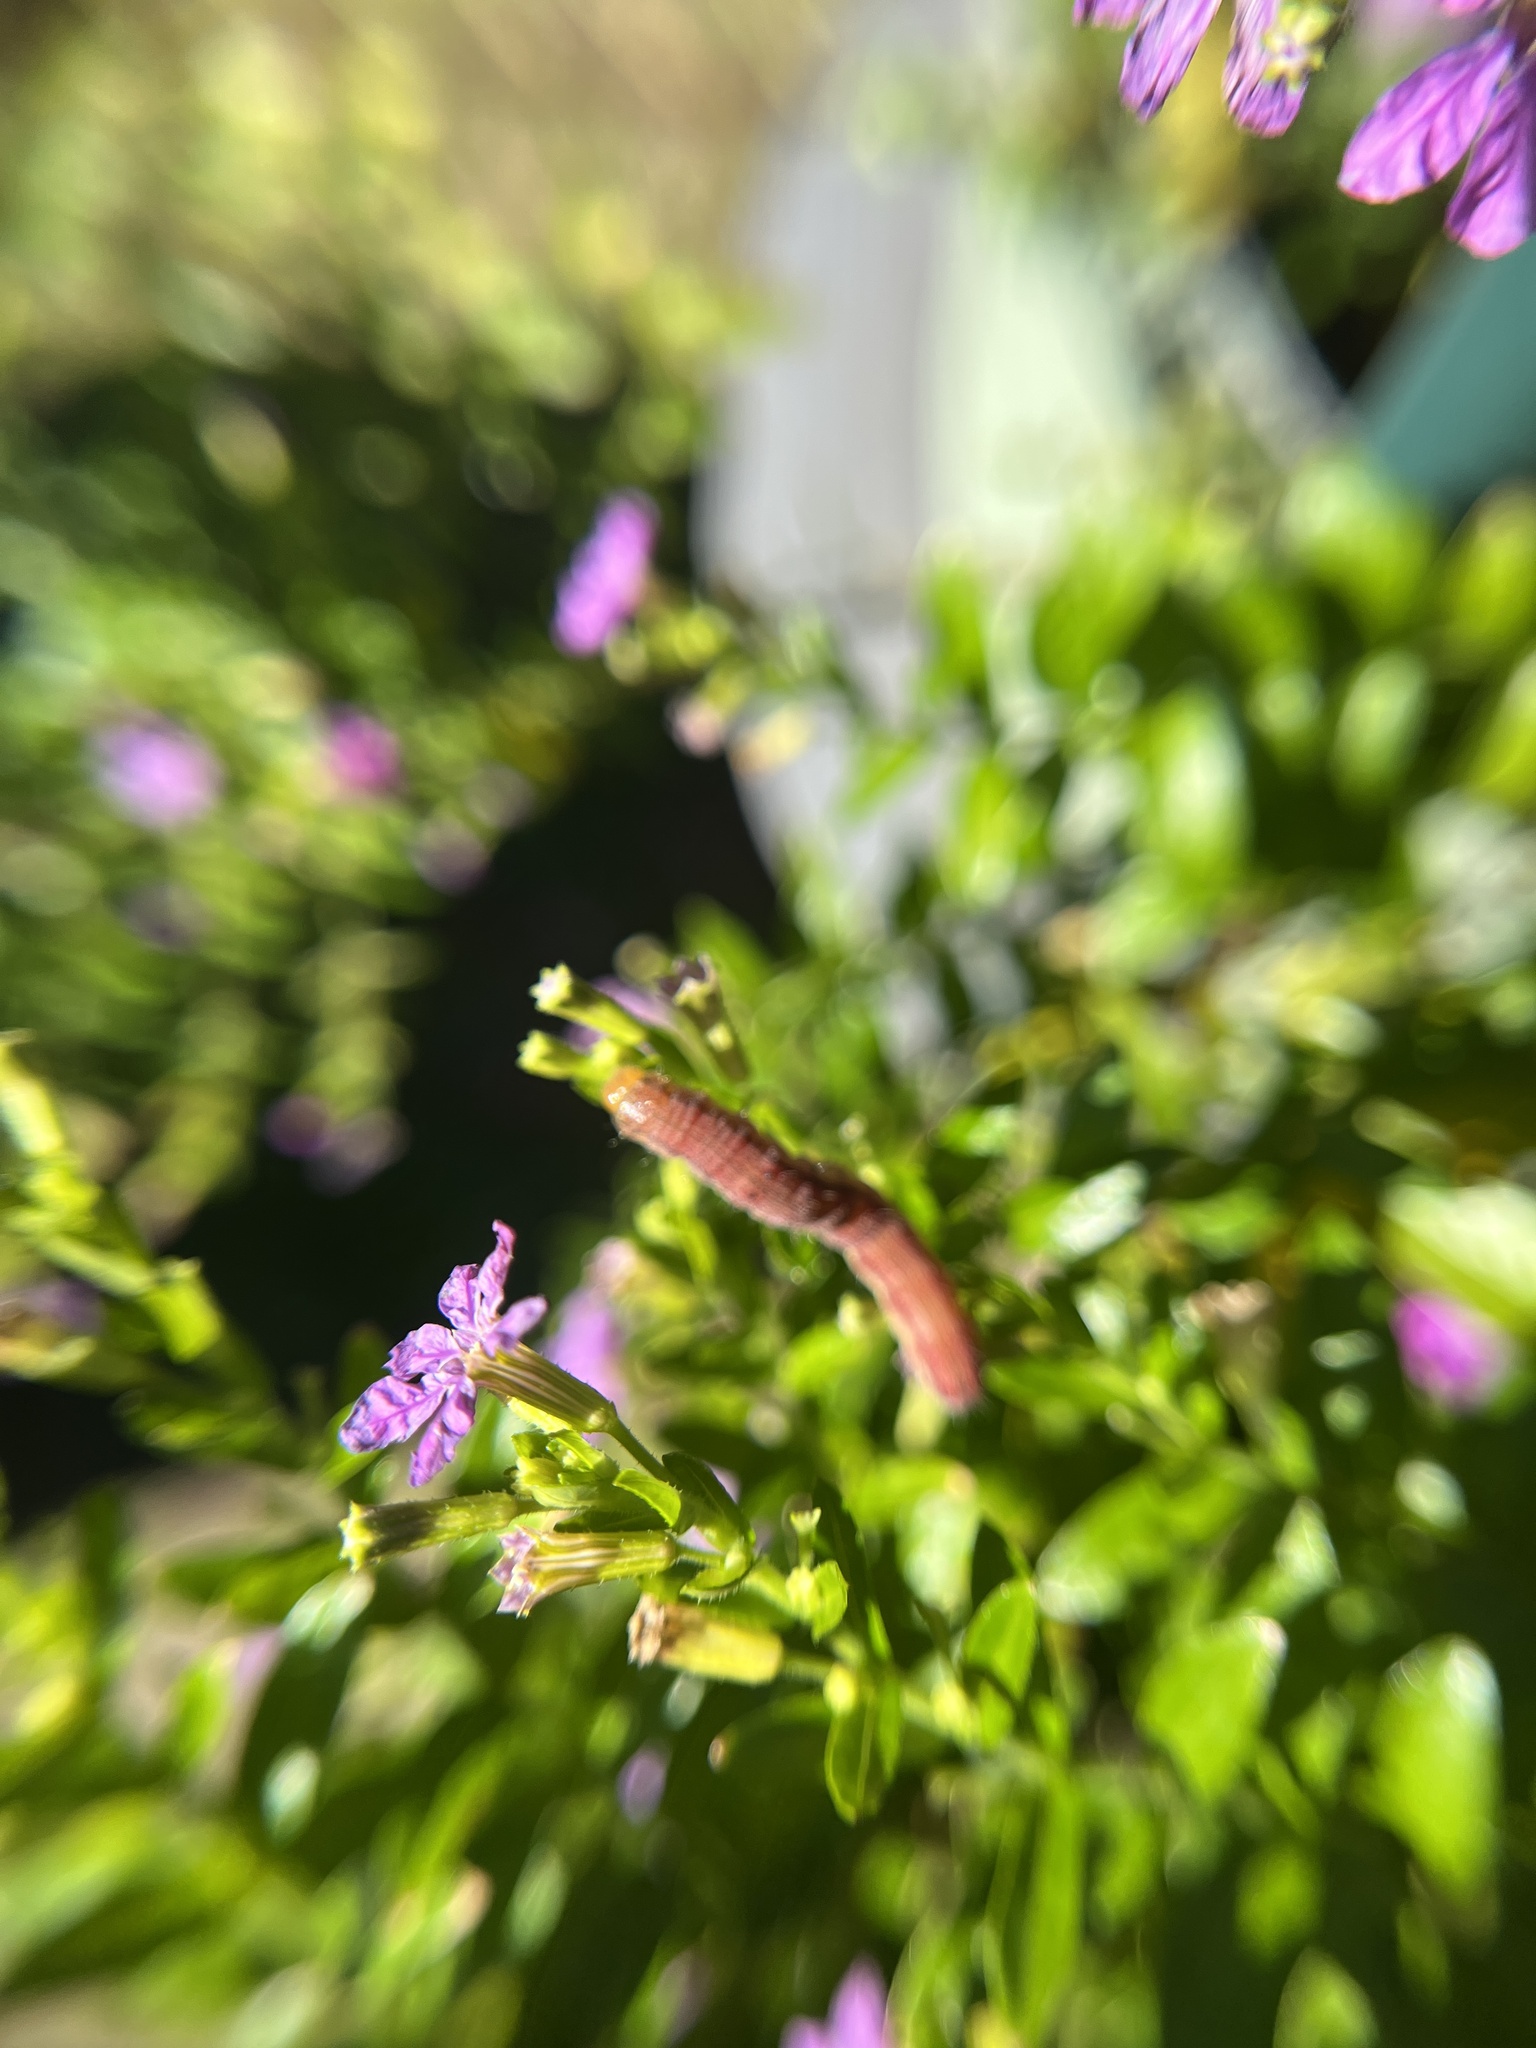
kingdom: Animalia
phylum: Arthropoda
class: Insecta
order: Lepidoptera
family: Noctuidae
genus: Chloridea
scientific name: Chloridea virescens
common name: Tobacco budworm
